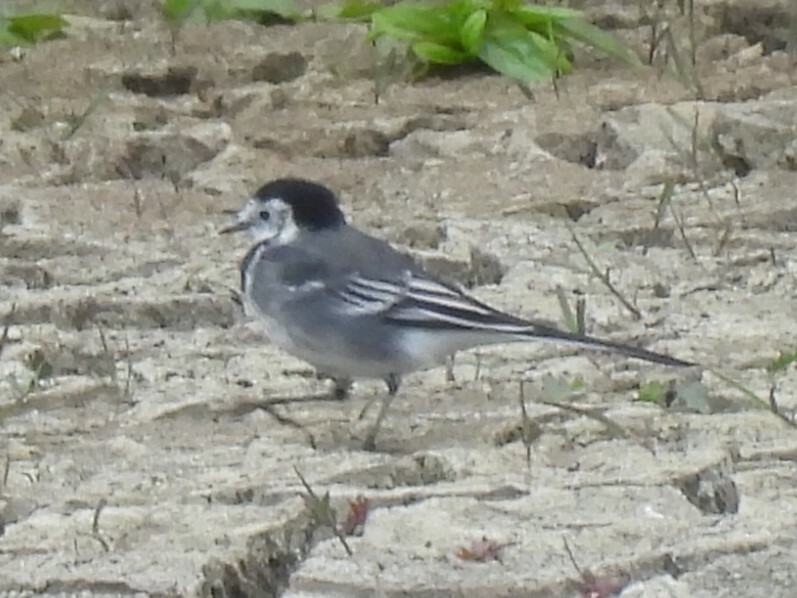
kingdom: Animalia
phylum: Chordata
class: Aves
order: Passeriformes
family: Motacillidae
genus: Motacilla
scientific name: Motacilla alba
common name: White wagtail
